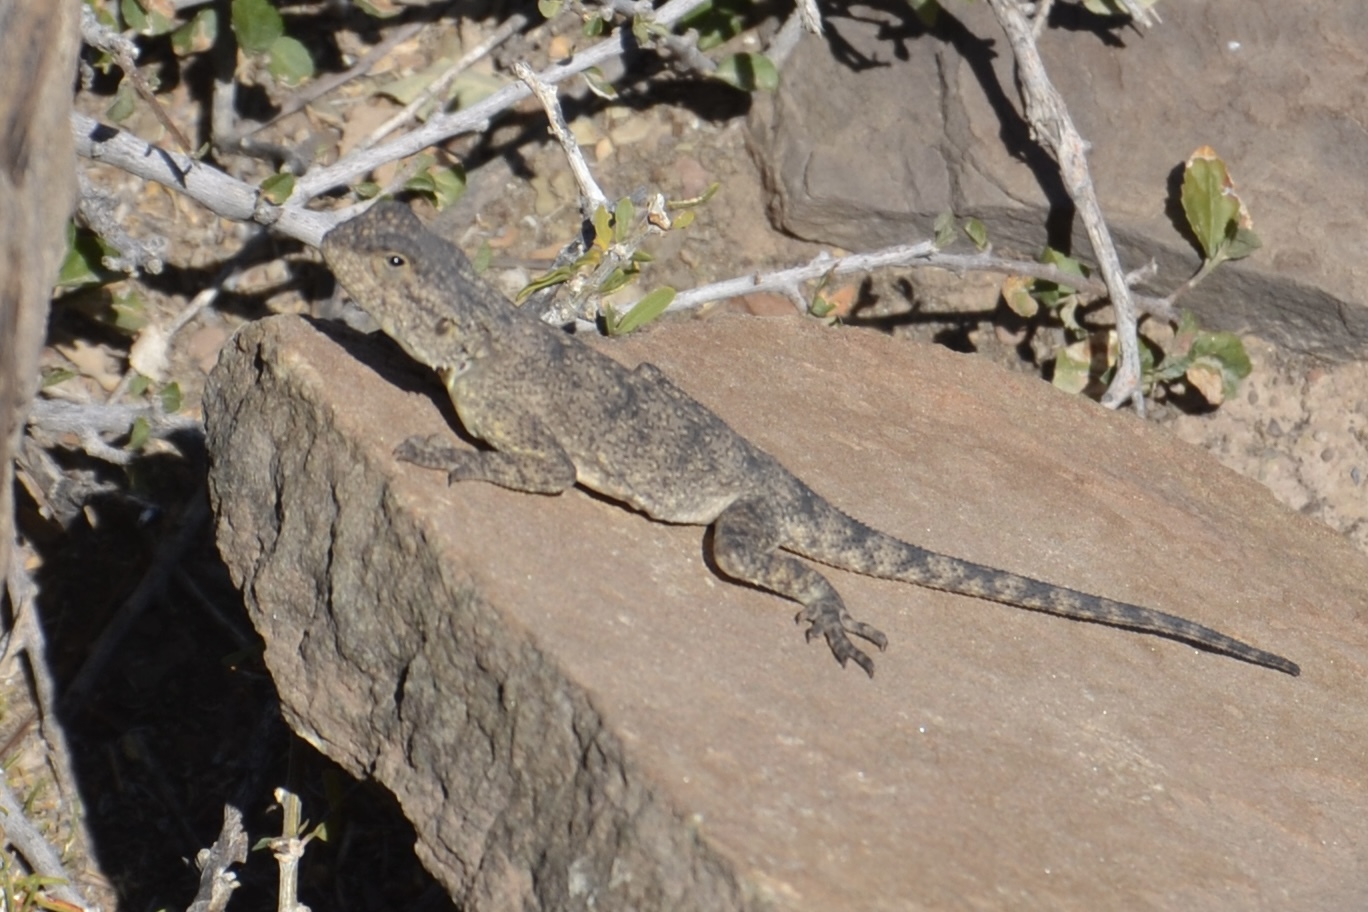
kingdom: Animalia
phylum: Chordata
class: Squamata
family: Agamidae
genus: Agama
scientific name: Agama atra
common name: Southern african rock agama
